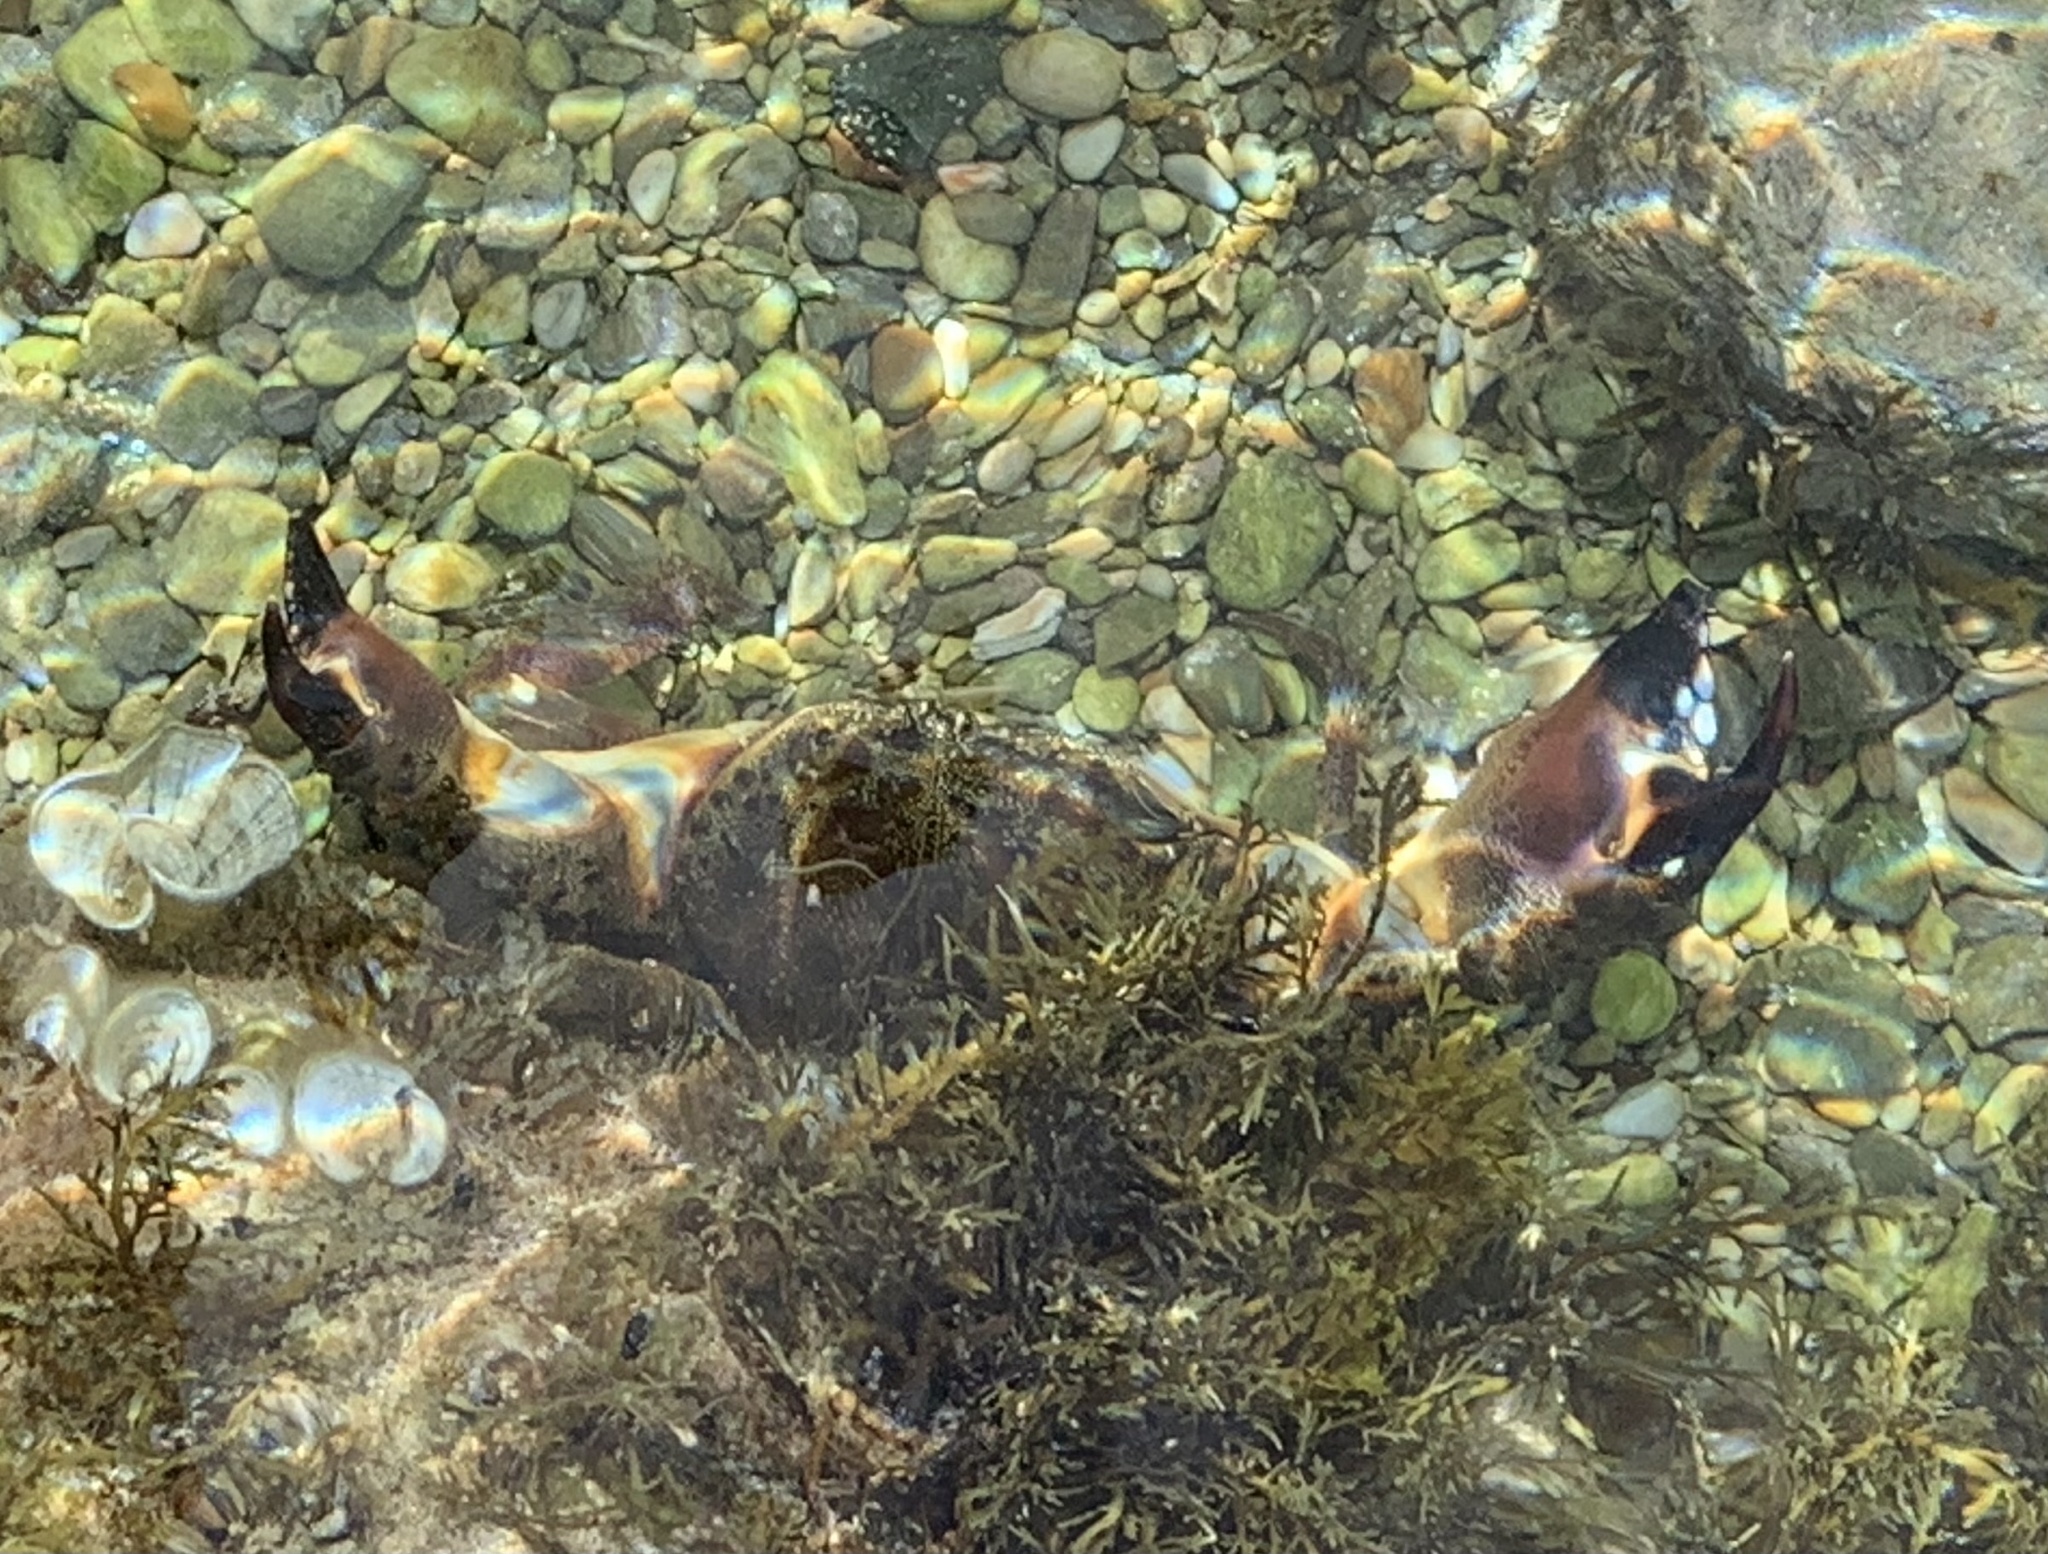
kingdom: Animalia
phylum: Arthropoda
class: Malacostraca
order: Decapoda
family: Eriphiidae
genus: Eriphia
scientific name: Eriphia verrucosa
